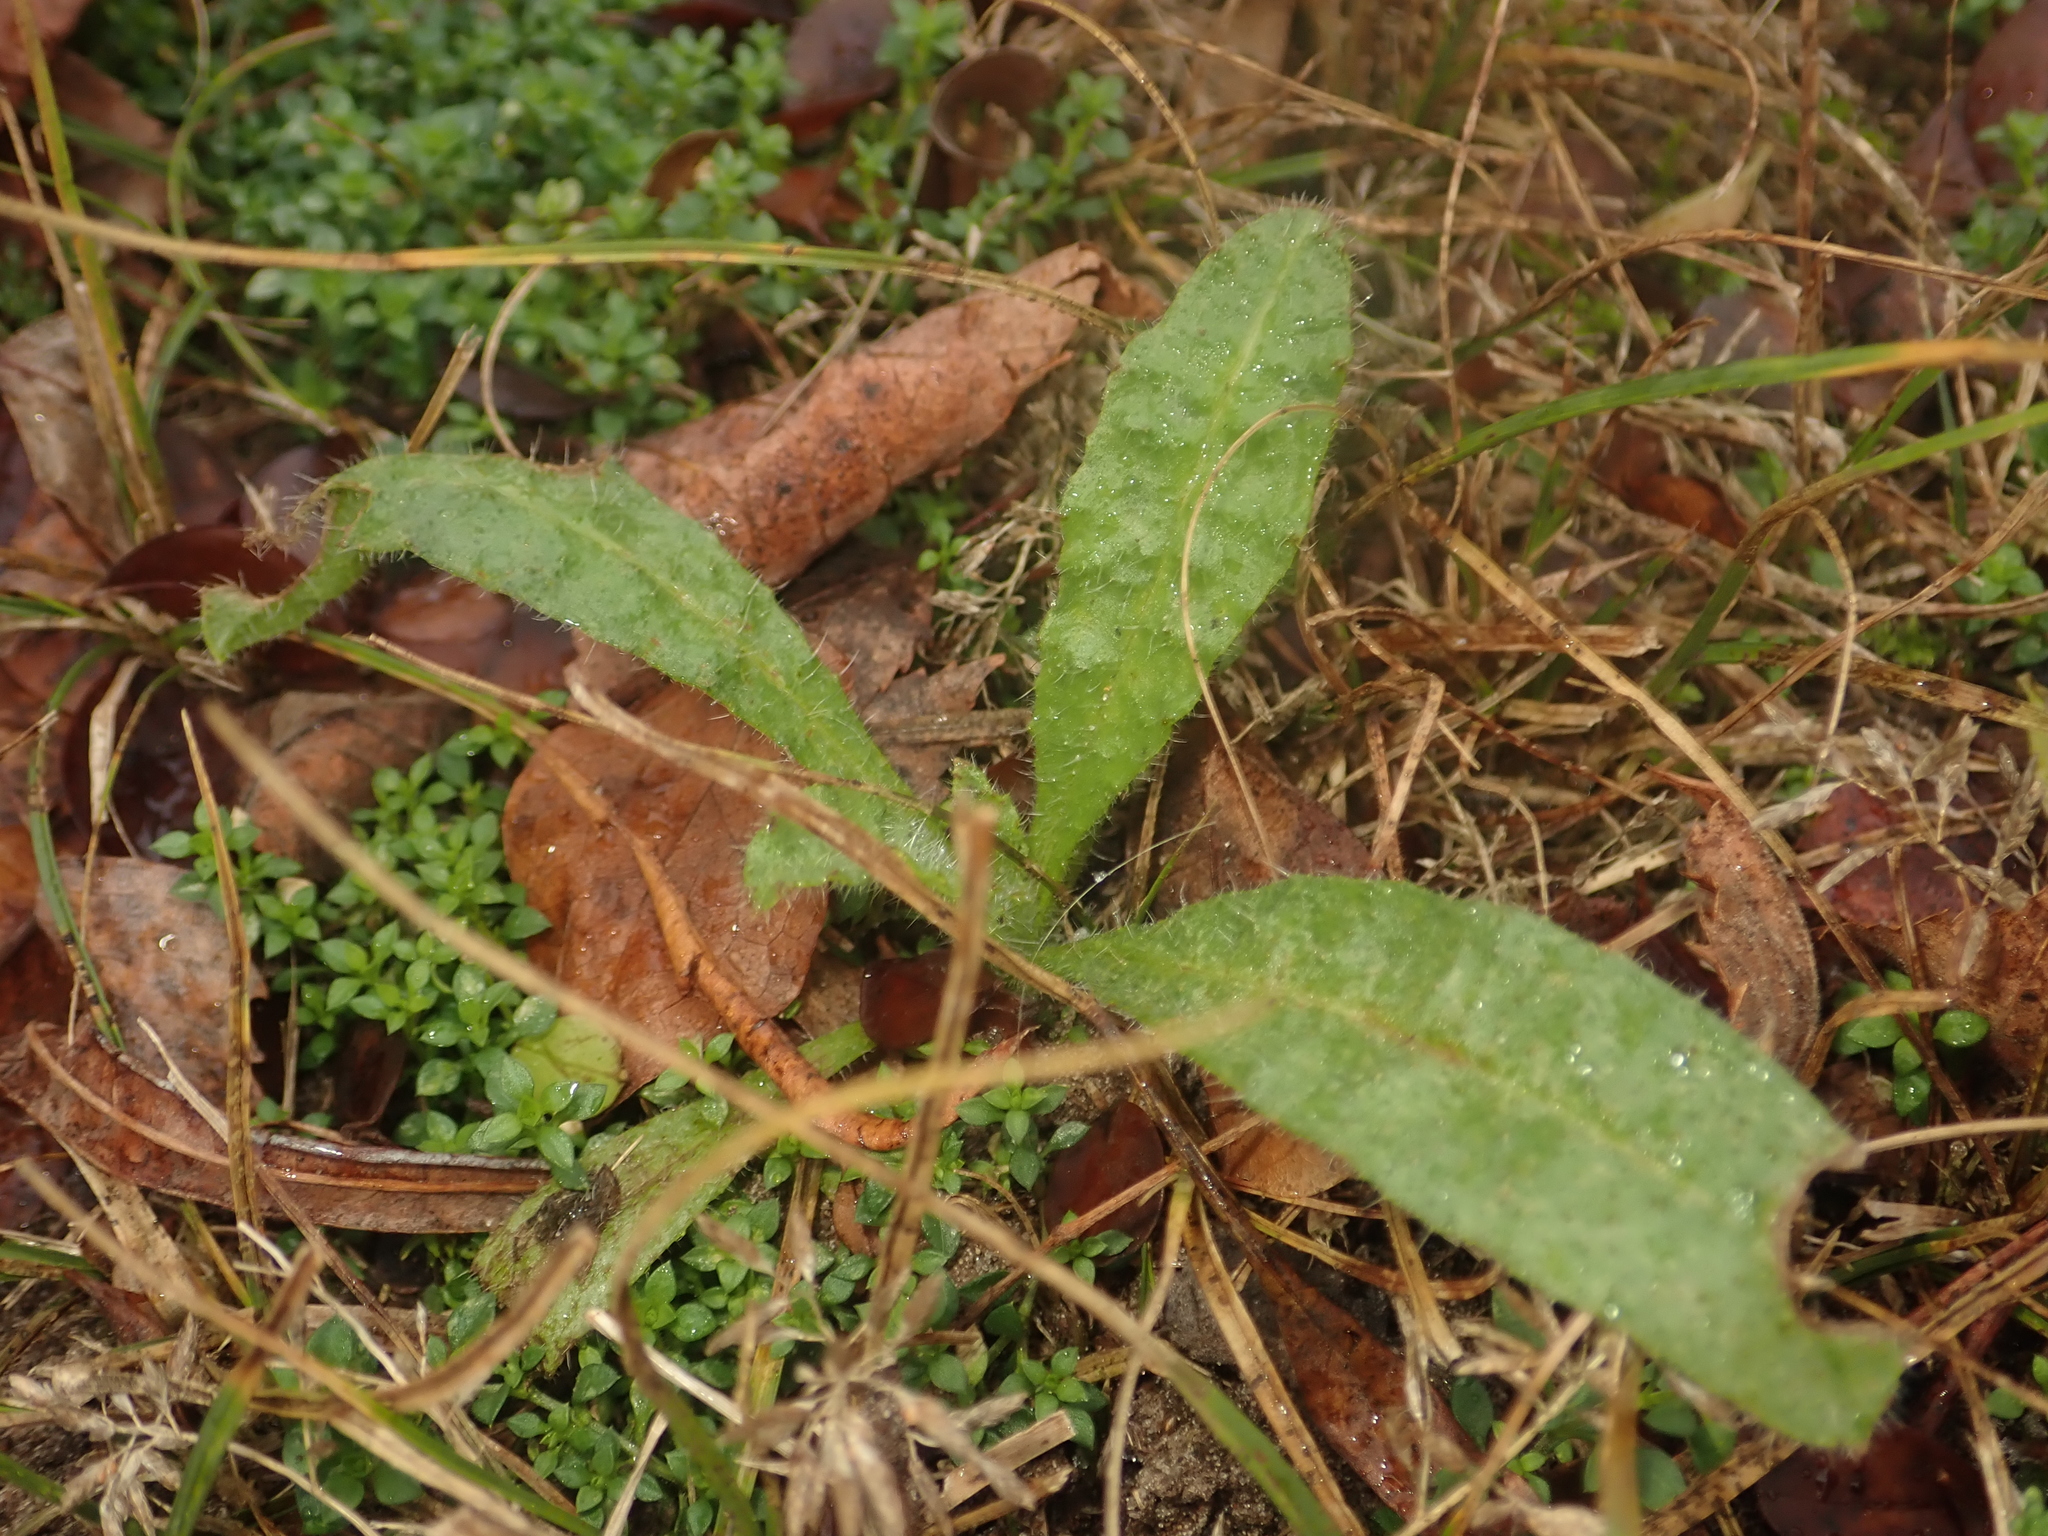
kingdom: Plantae
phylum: Tracheophyta
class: Magnoliopsida
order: Boraginales
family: Boraginaceae
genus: Echium
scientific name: Echium vulgare
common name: Common viper's bugloss
